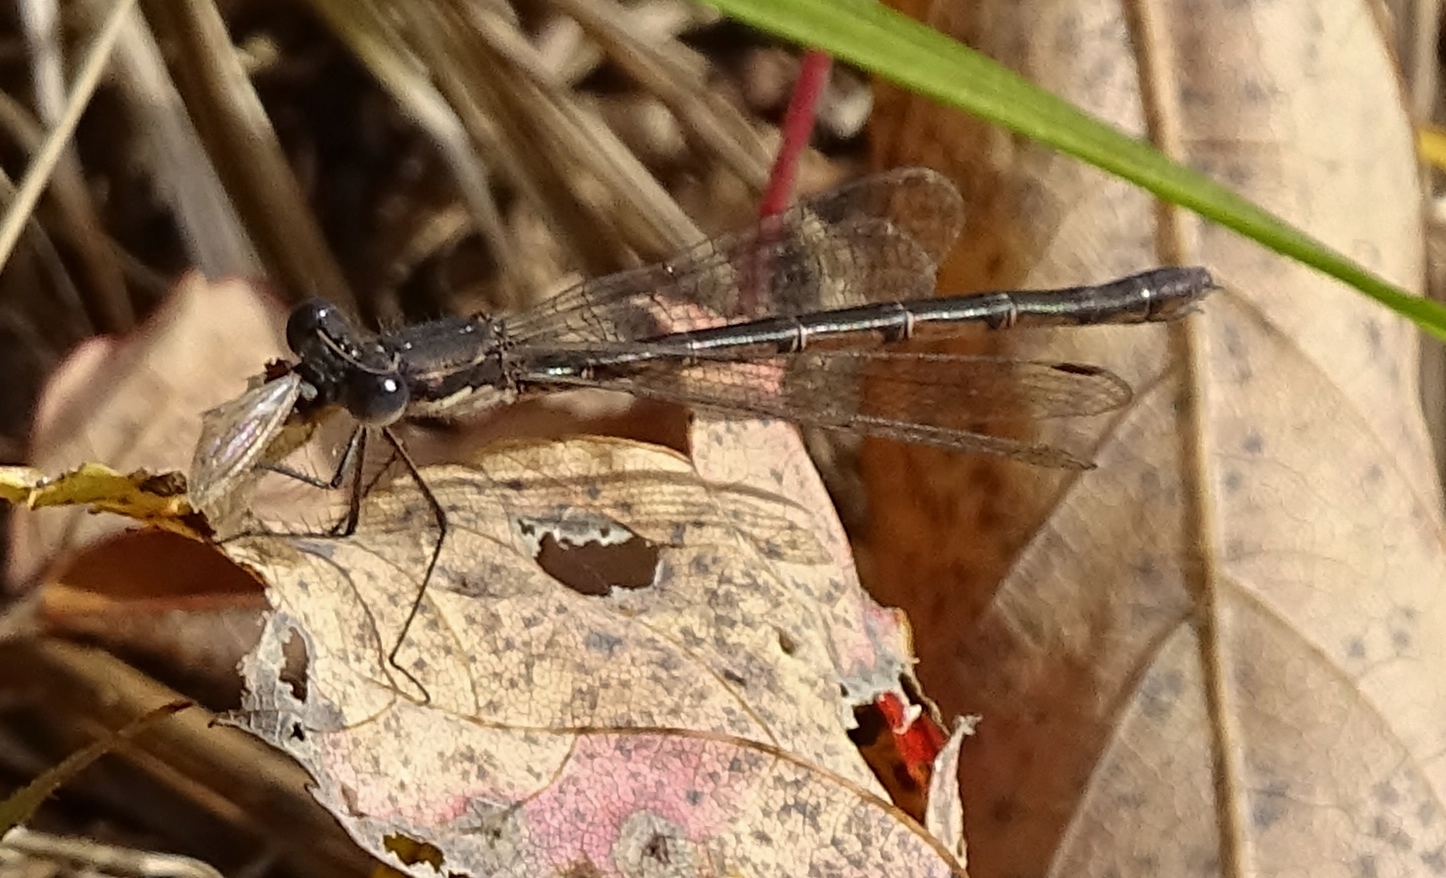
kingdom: Animalia
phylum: Arthropoda
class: Insecta
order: Odonata
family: Lestidae
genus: Lestes
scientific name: Lestes congener
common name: Spotted spreadwing
